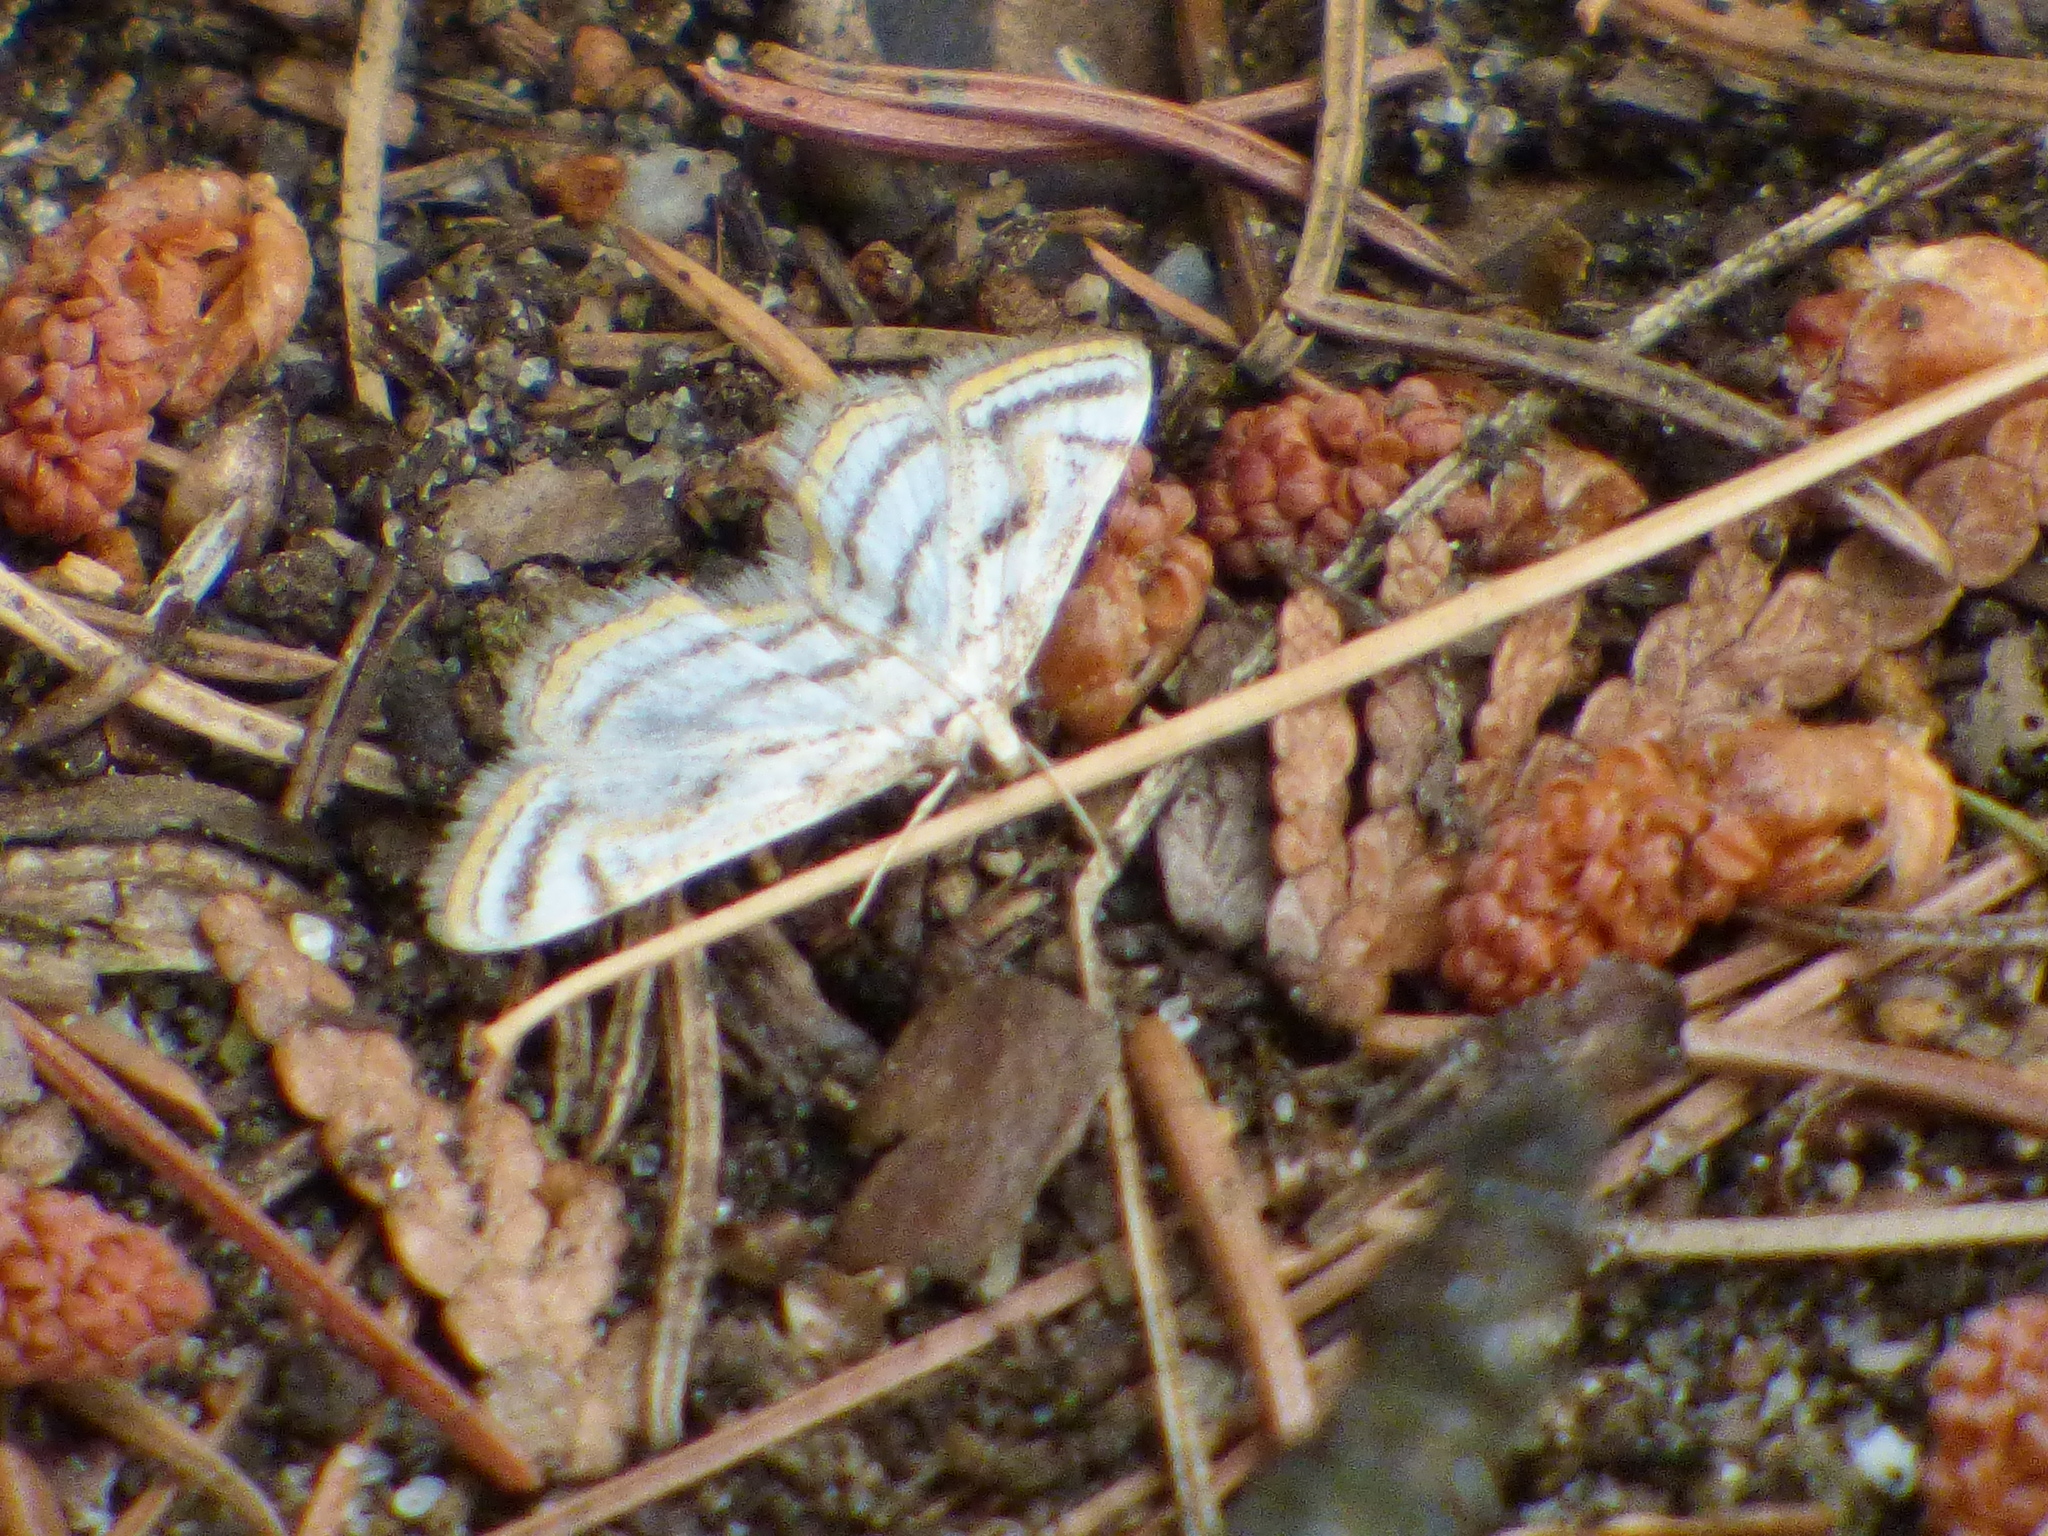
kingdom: Animalia
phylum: Arthropoda
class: Insecta
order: Lepidoptera
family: Crambidae
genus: Parapoynx
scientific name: Parapoynx badiusalis
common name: Chestnut-marked pondweed moth
